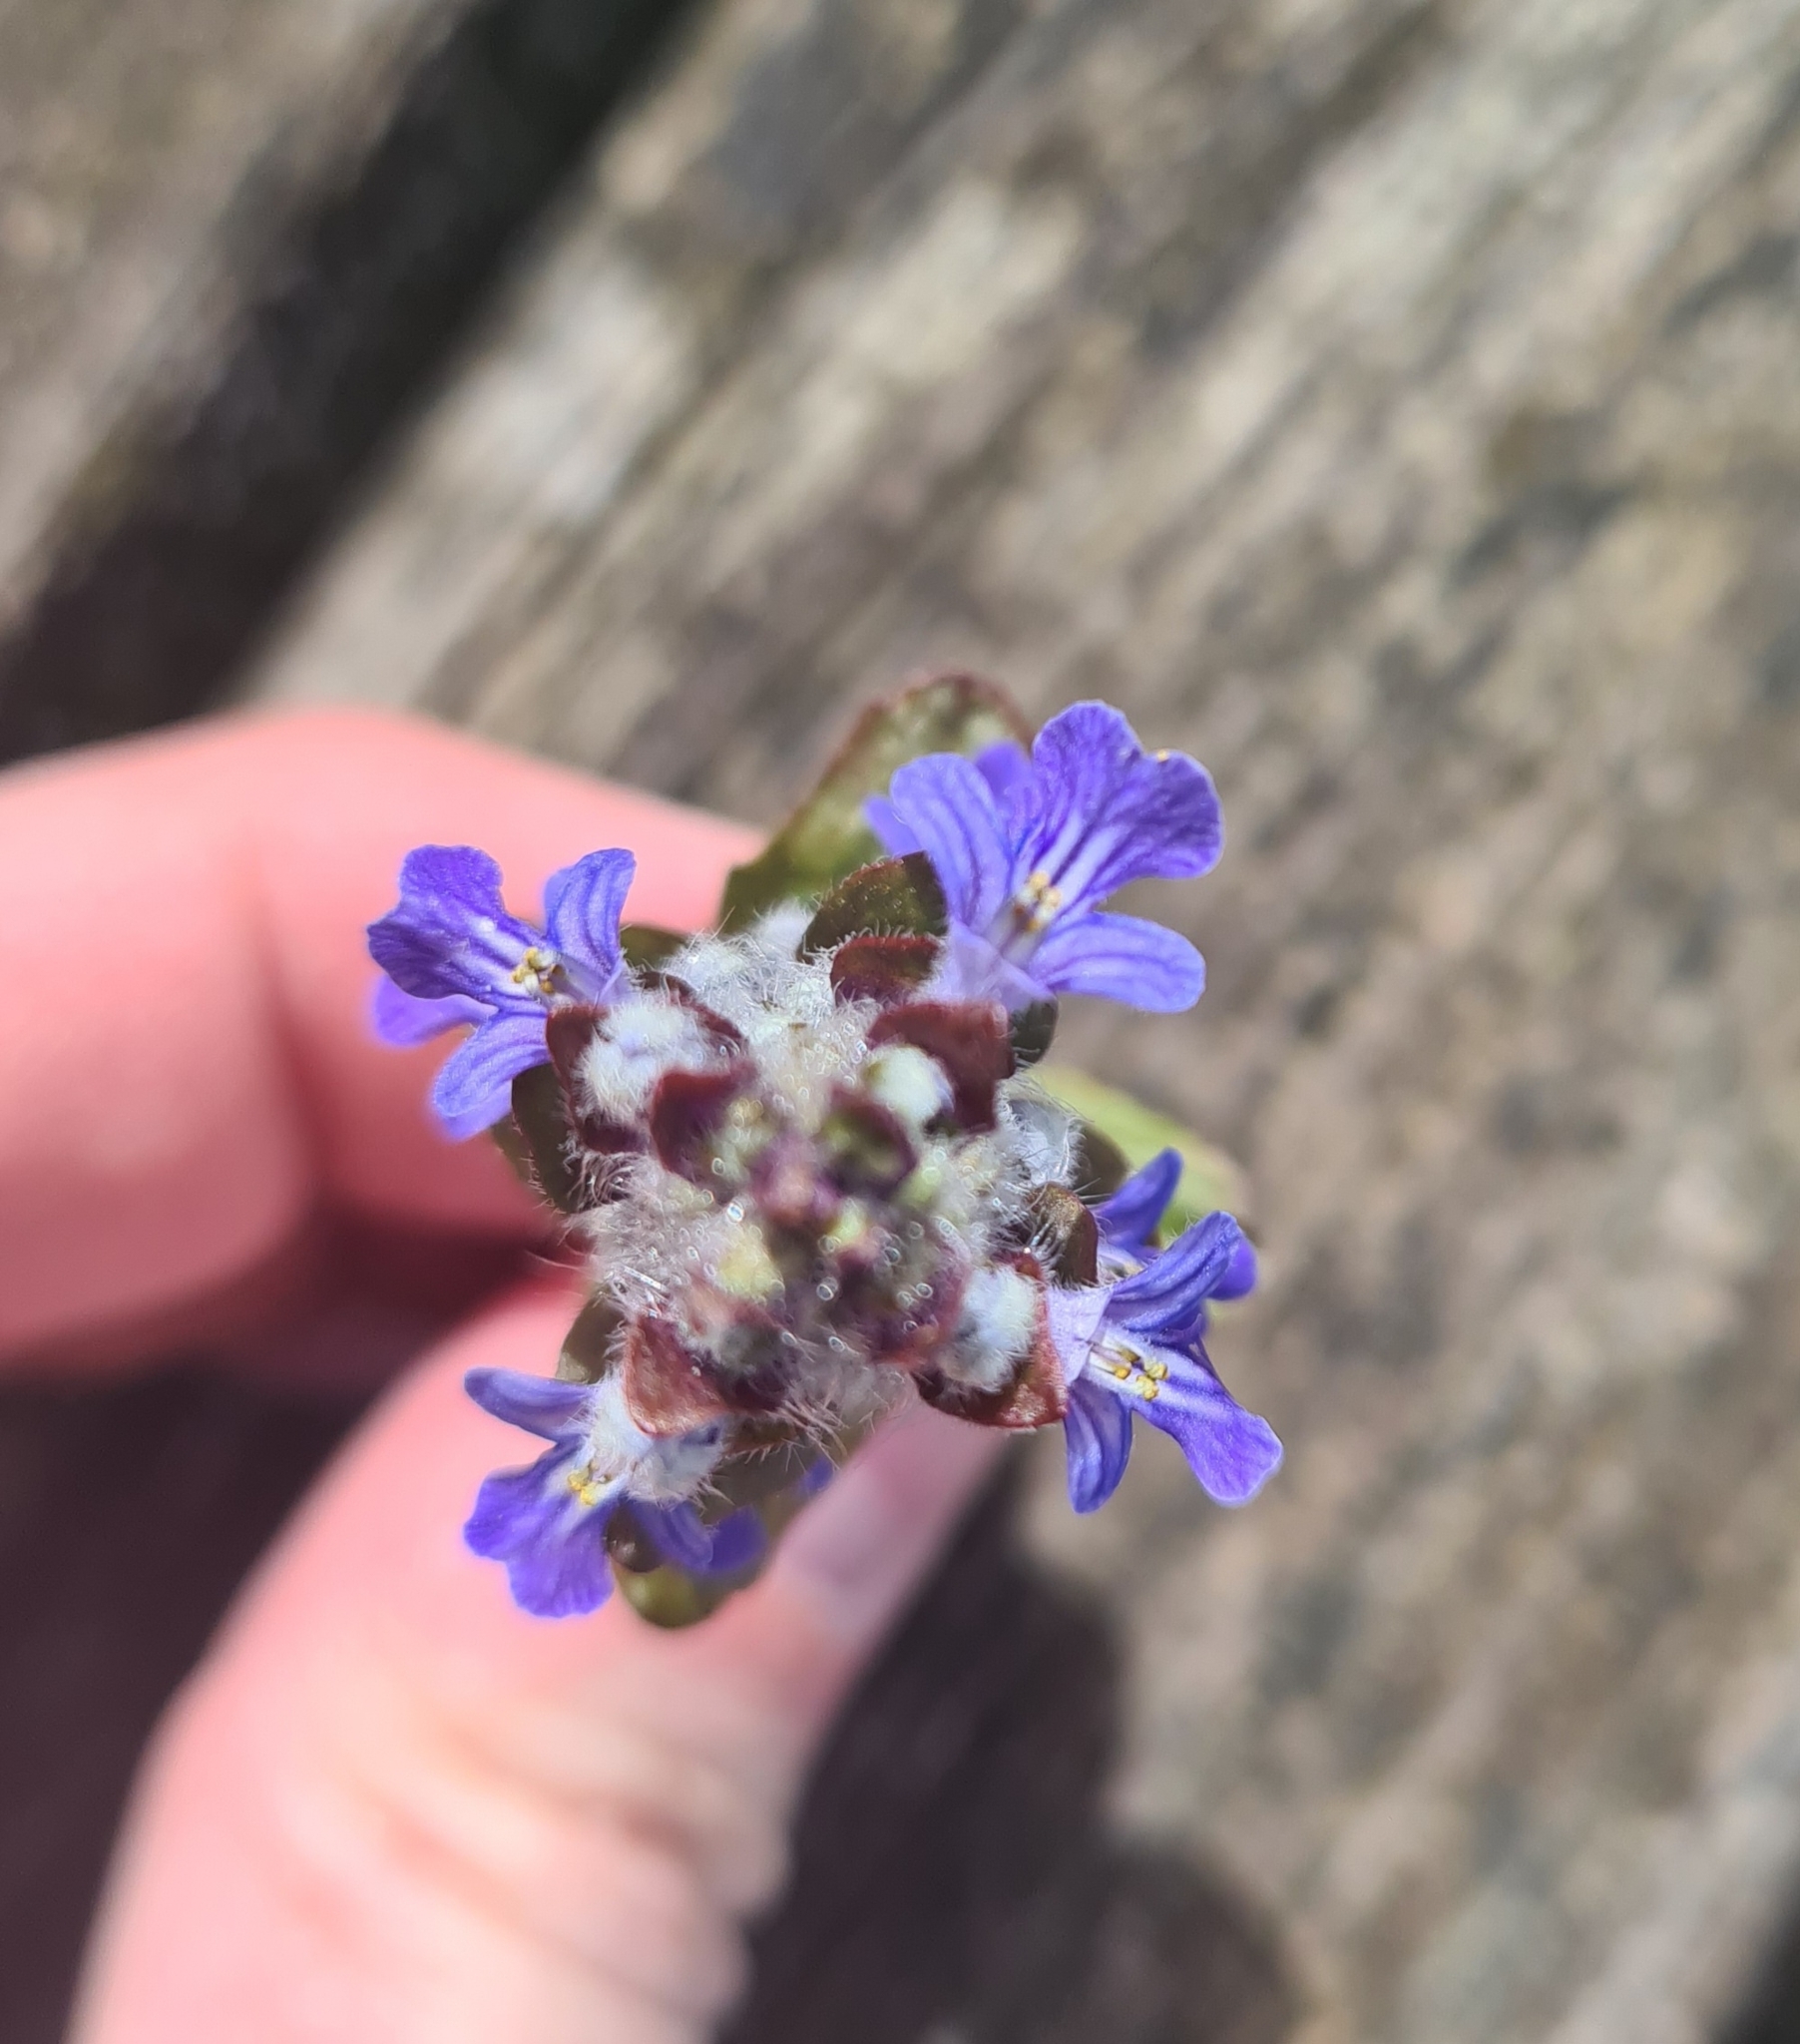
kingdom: Plantae
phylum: Tracheophyta
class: Magnoliopsida
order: Lamiales
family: Lamiaceae
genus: Ajuga
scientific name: Ajuga reptans
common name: Bugle
